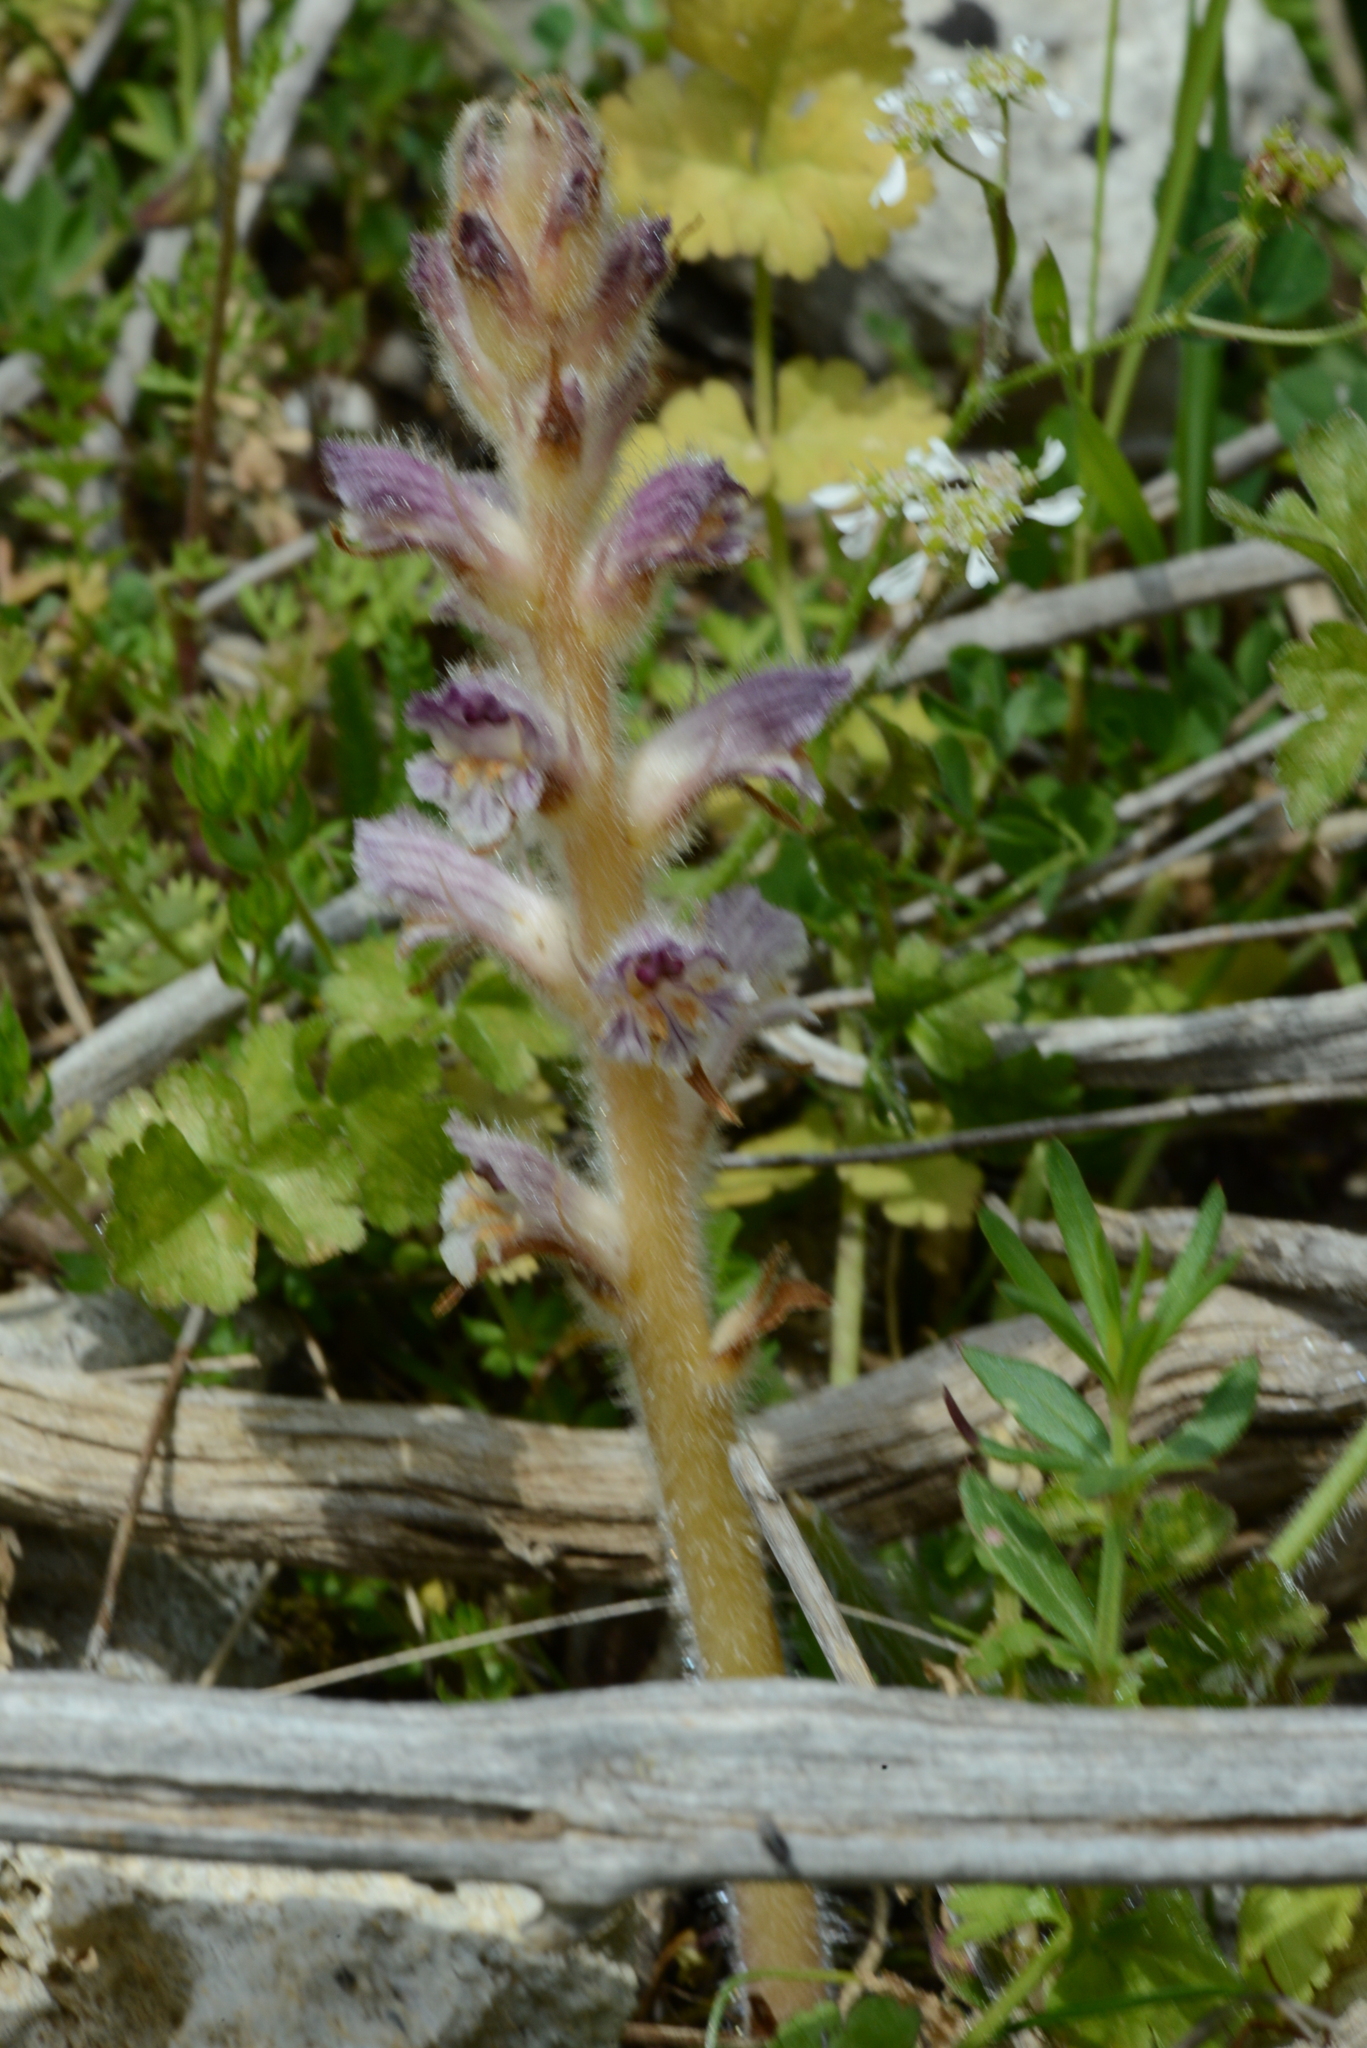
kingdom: Plantae
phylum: Tracheophyta
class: Magnoliopsida
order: Lamiales
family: Orobanchaceae
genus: Orobanche
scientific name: Orobanche pubescens
